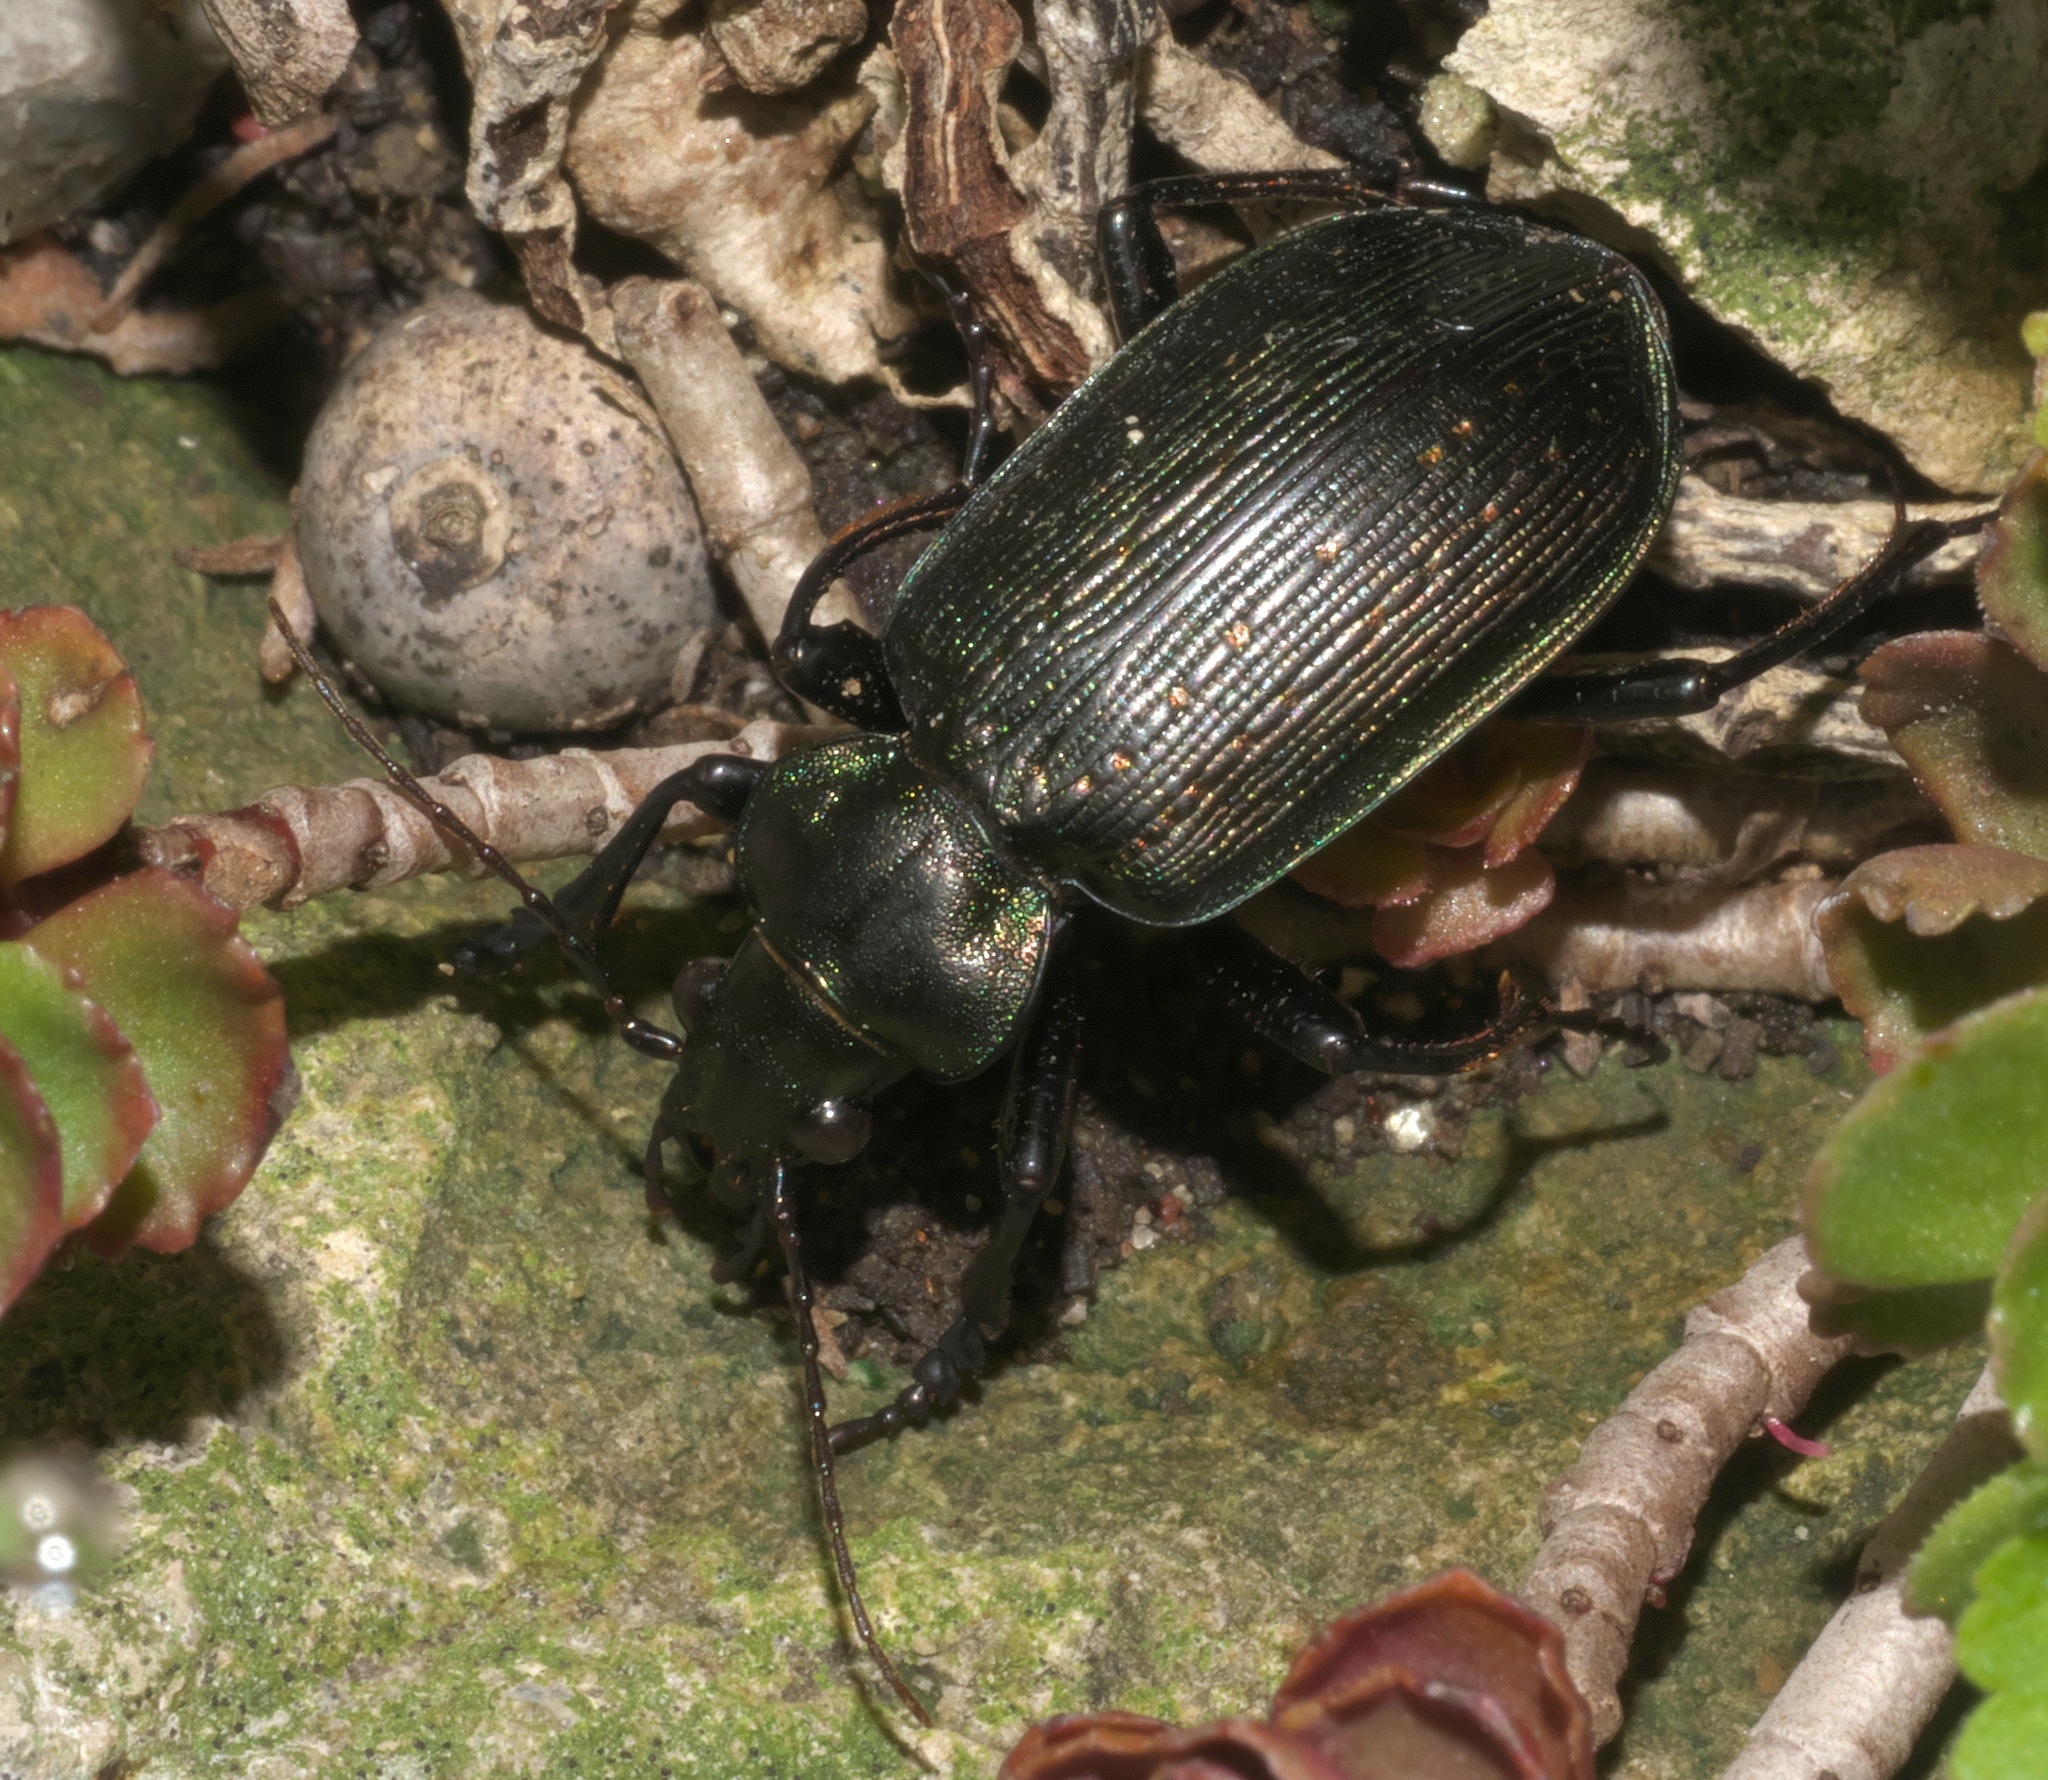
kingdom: Animalia
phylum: Arthropoda
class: Insecta
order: Coleoptera
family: Carabidae
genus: Calosoma
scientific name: Calosoma sayi
